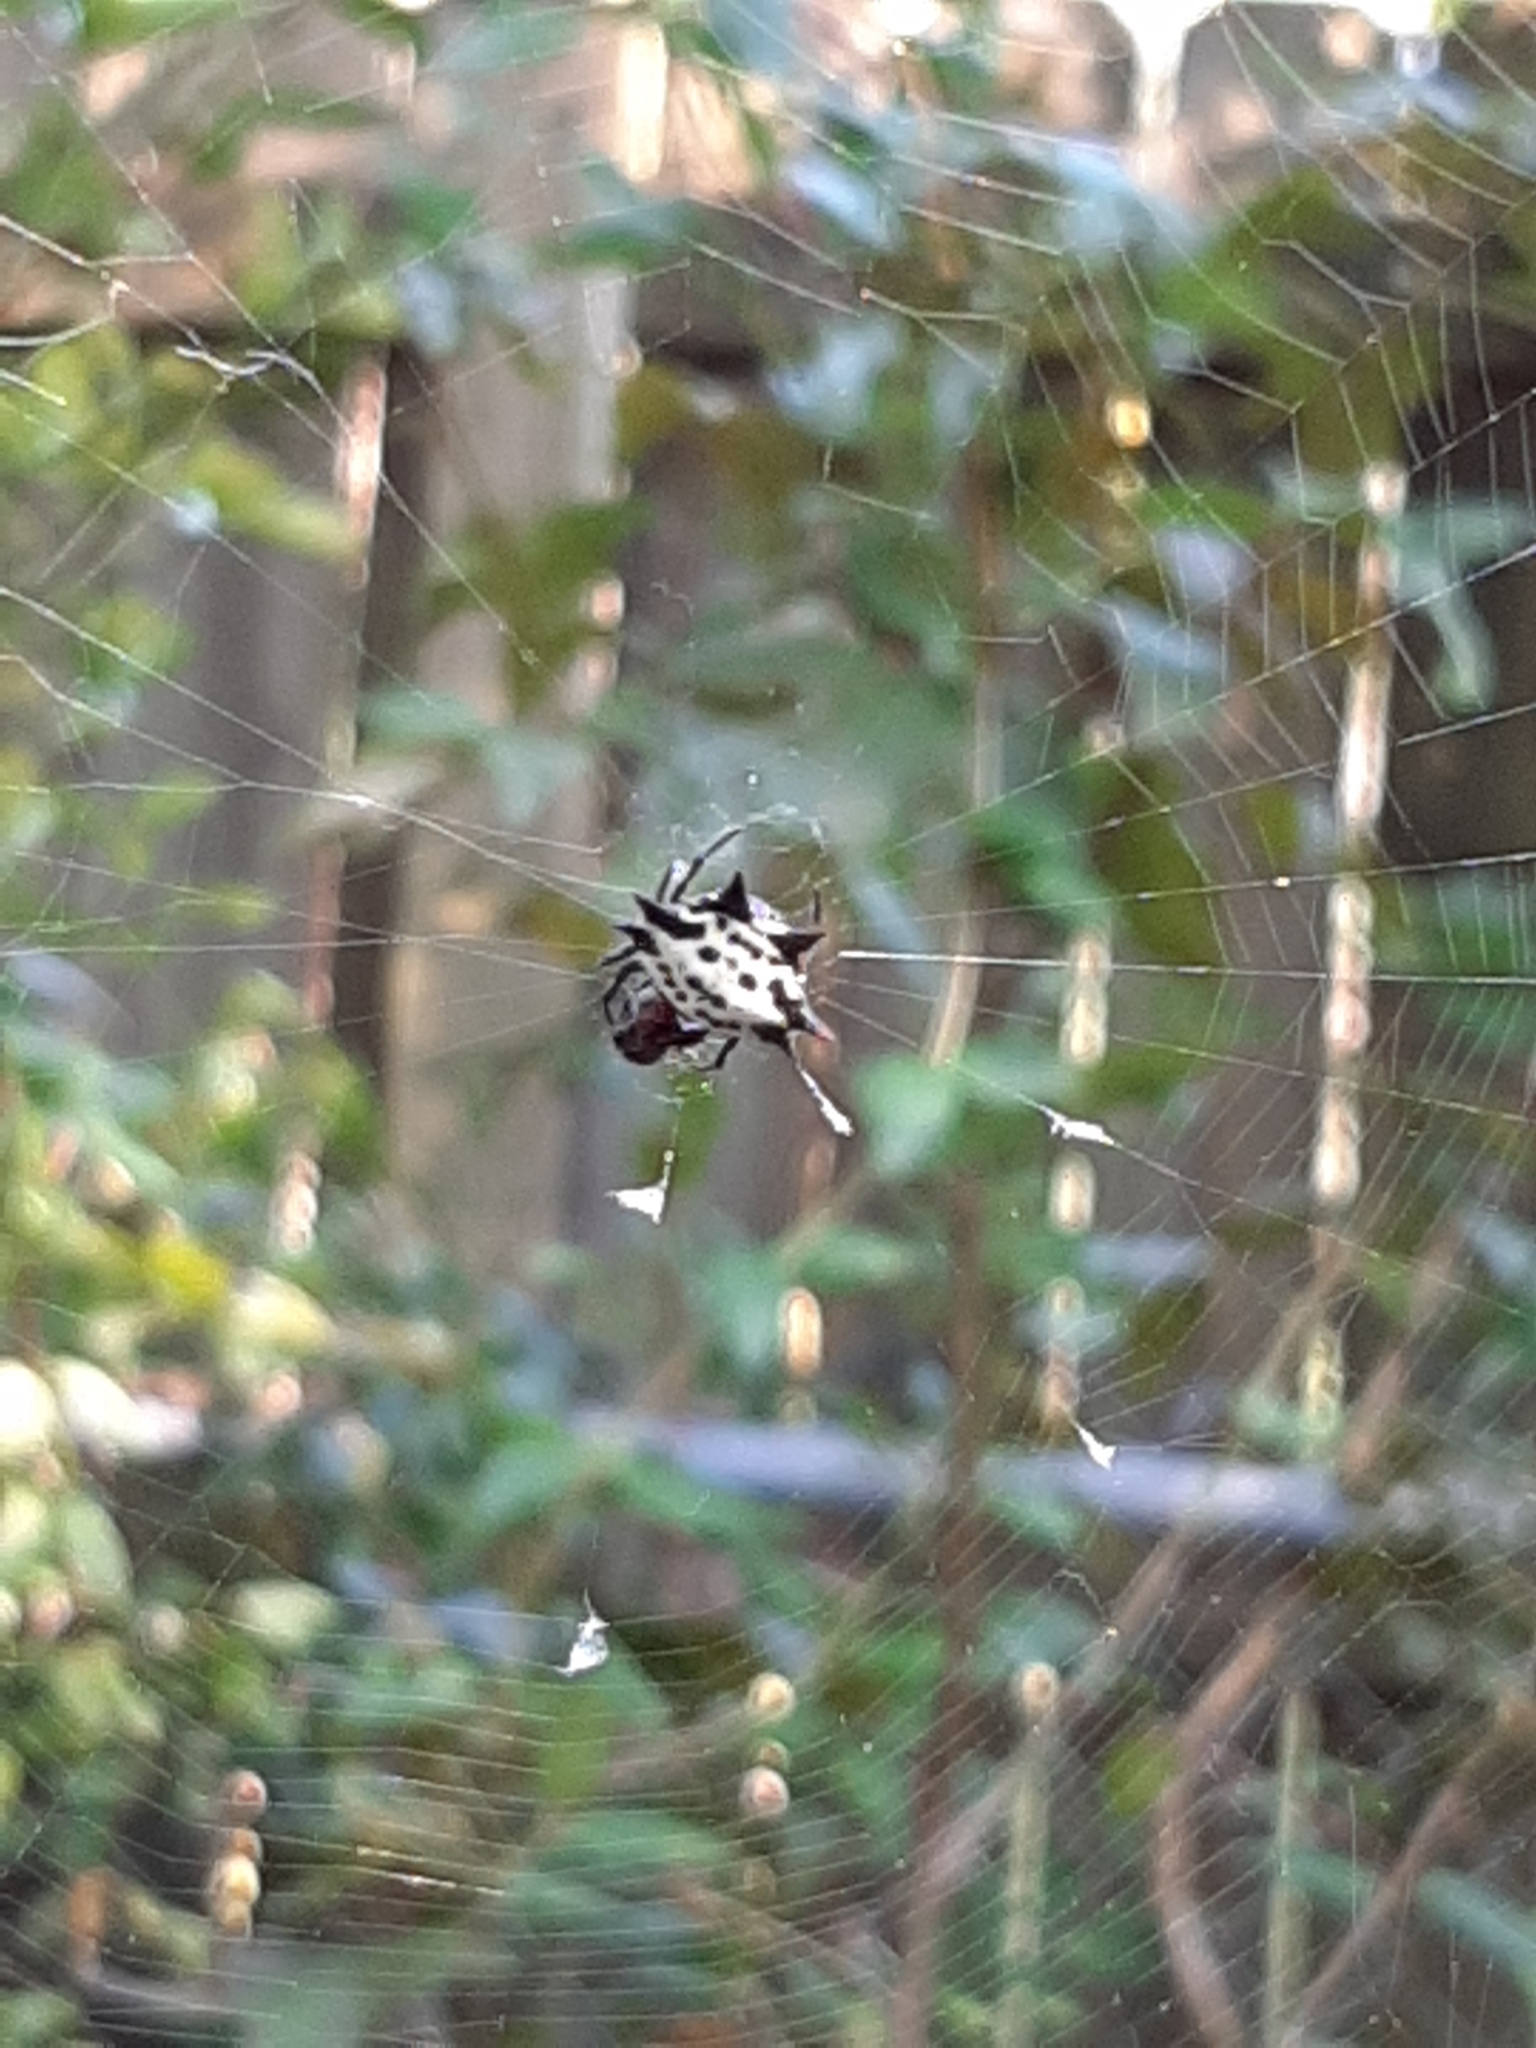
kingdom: Animalia
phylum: Arthropoda
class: Arachnida
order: Araneae
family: Araneidae
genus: Gasteracantha
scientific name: Gasteracantha cancriformis
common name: Orb weavers
